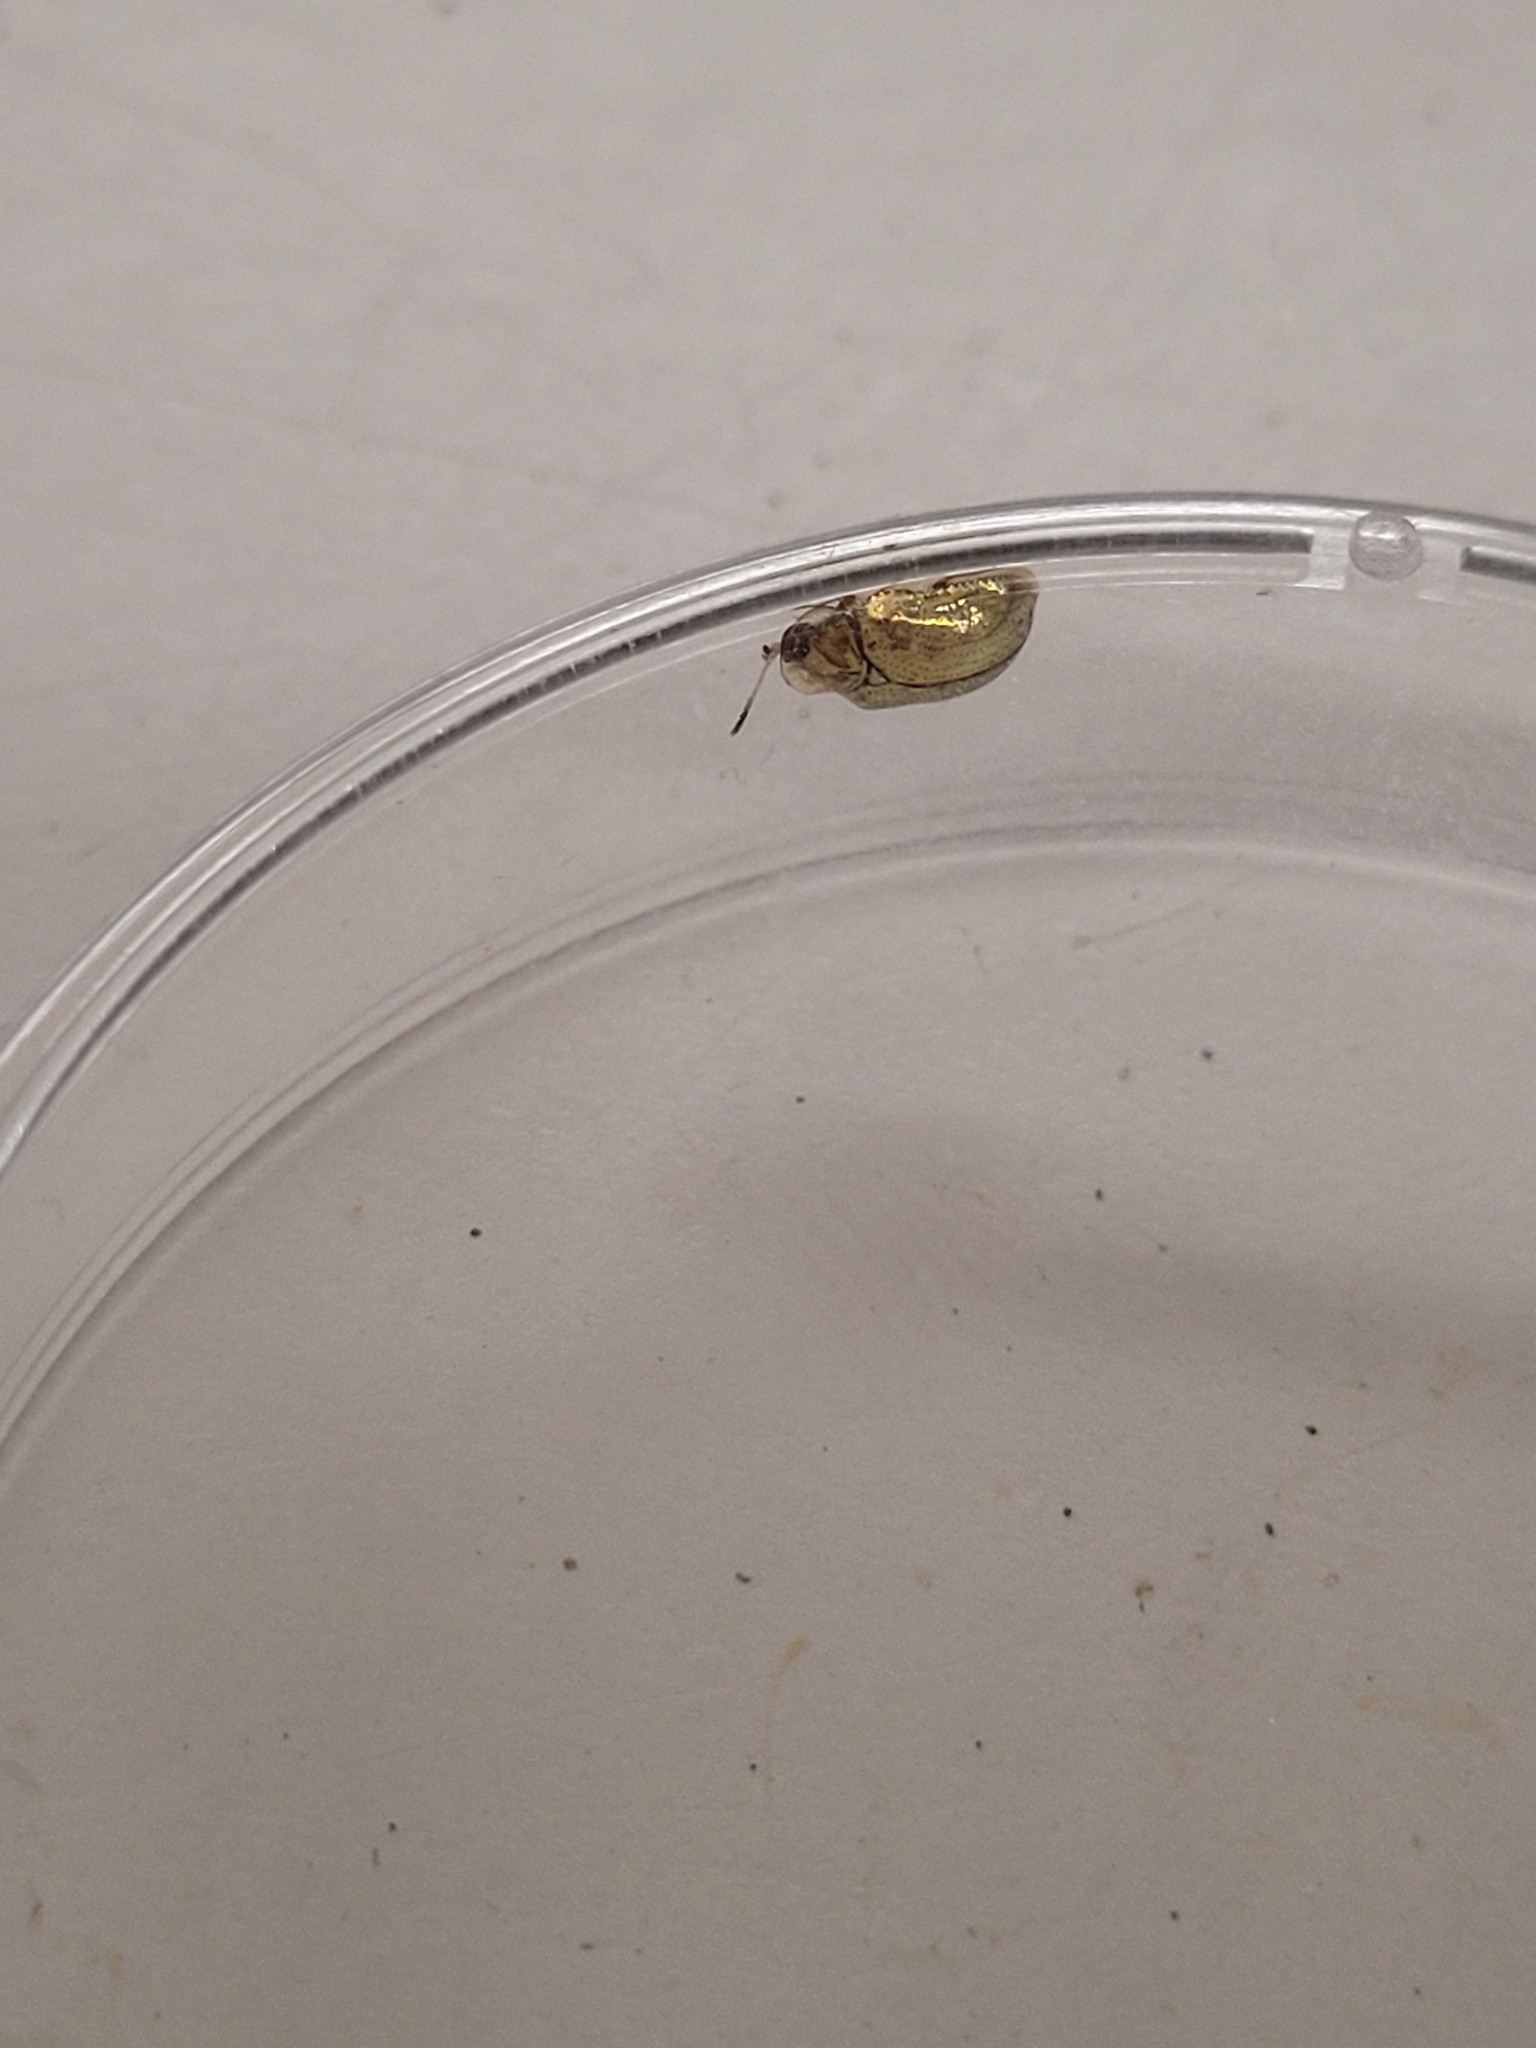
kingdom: Animalia
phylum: Arthropoda
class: Insecta
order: Coleoptera
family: Chrysomelidae
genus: Charidotella
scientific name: Charidotella sexpunctata
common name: Golden tortoise beetle
